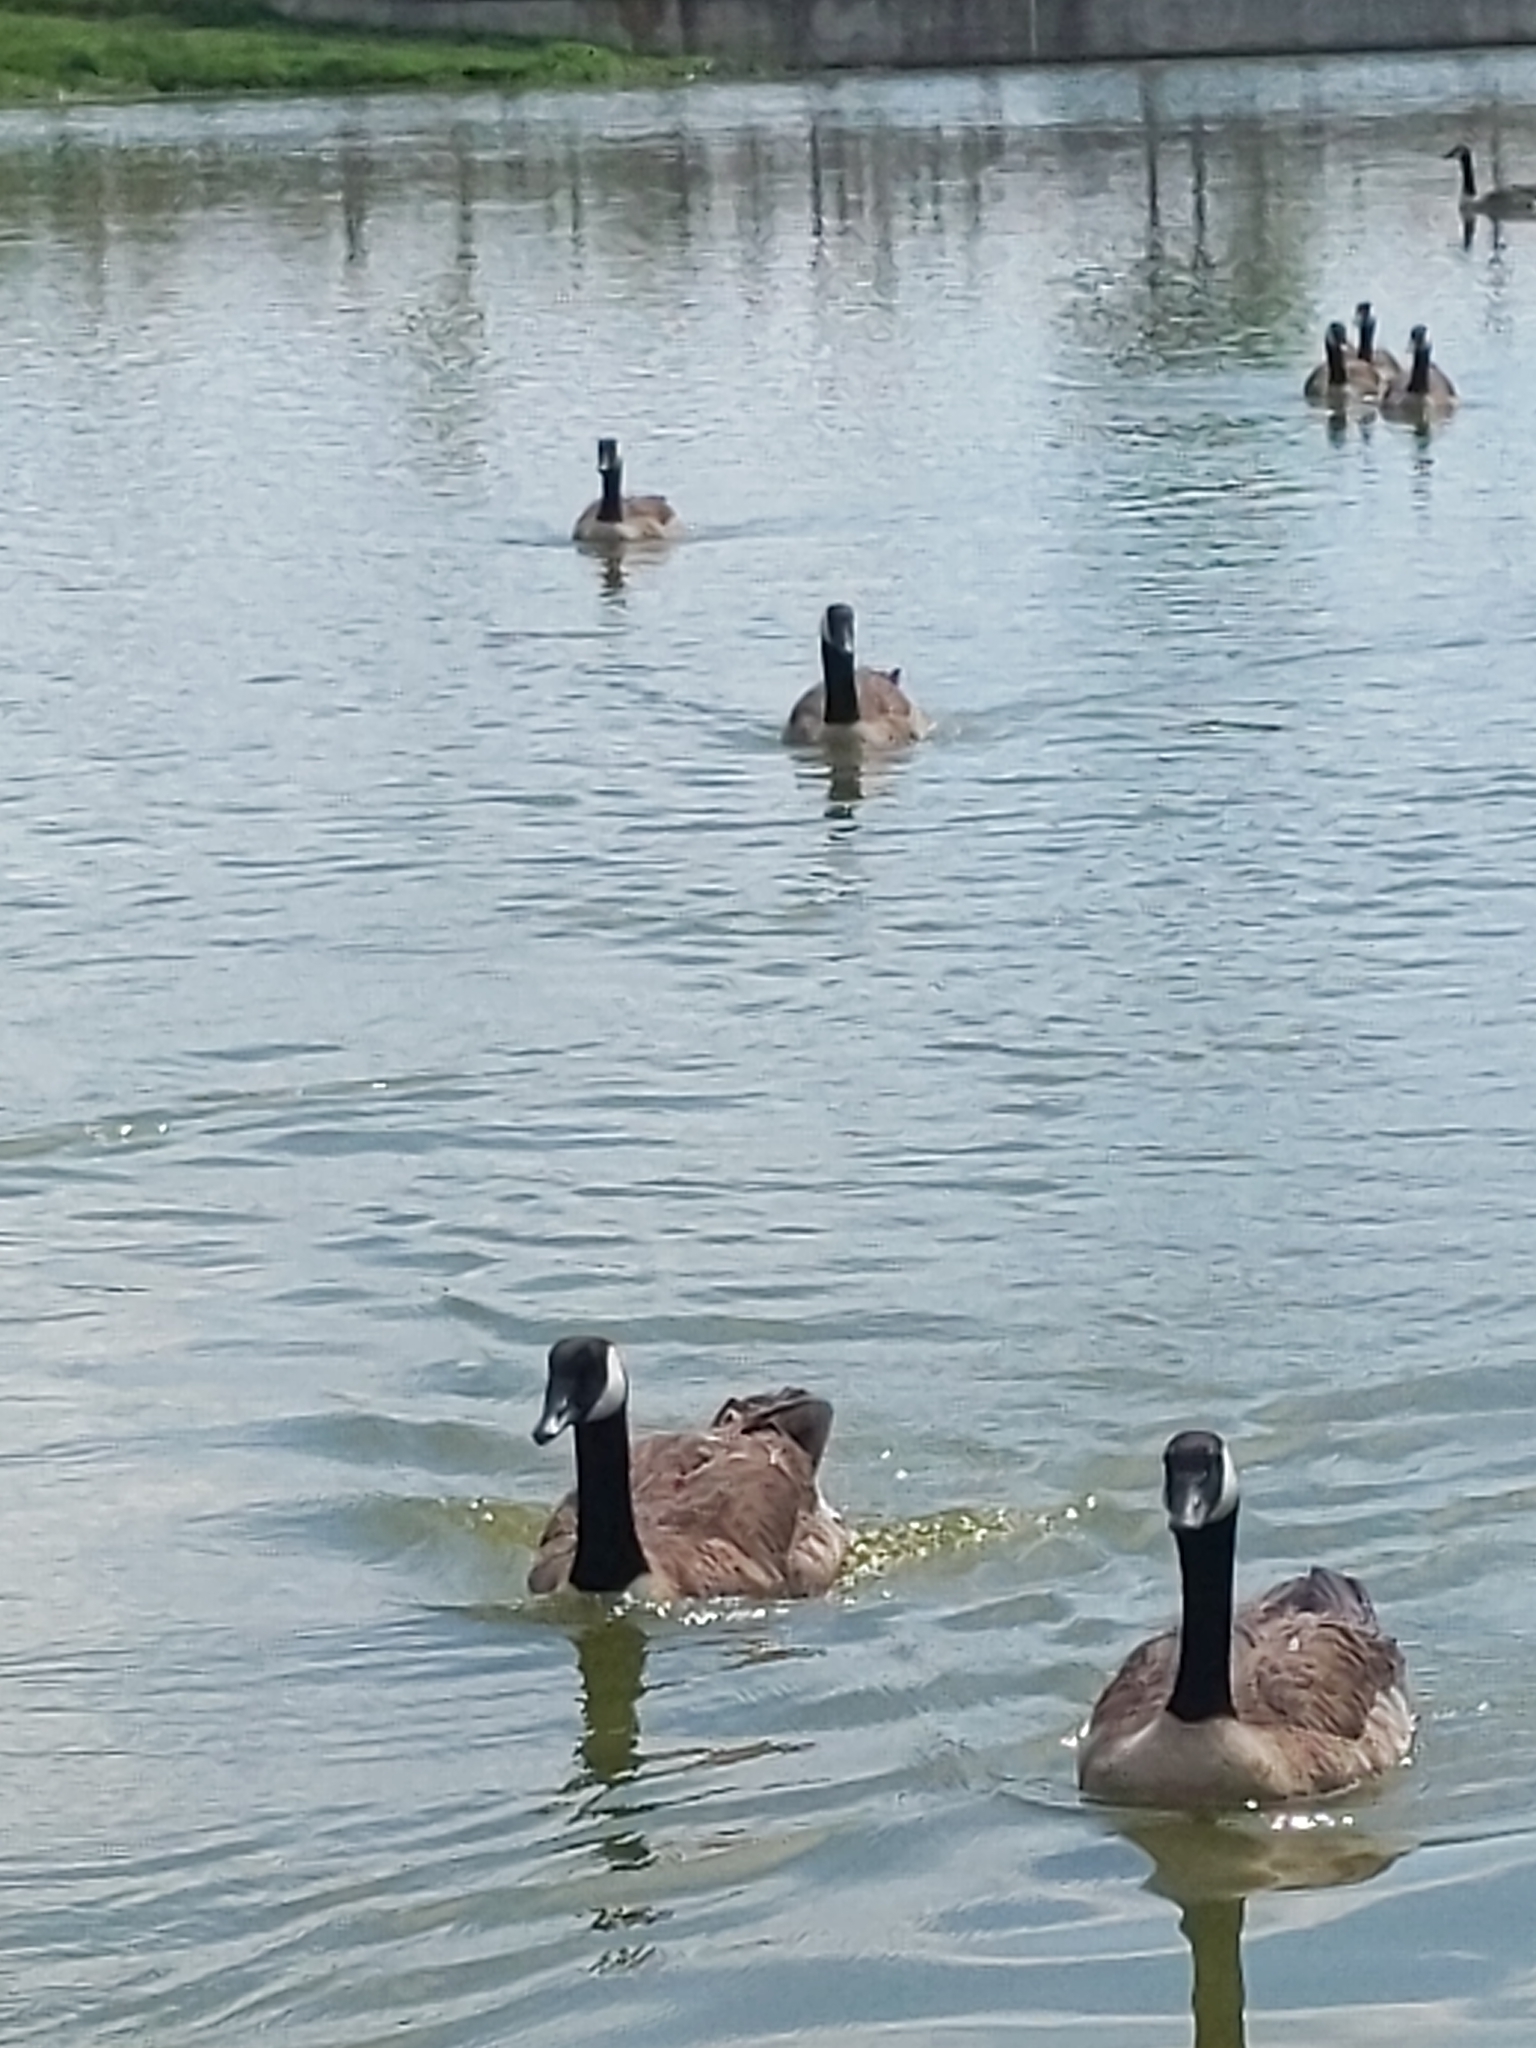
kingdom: Animalia
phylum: Chordata
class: Aves
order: Anseriformes
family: Anatidae
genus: Branta
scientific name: Branta canadensis
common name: Canada goose
